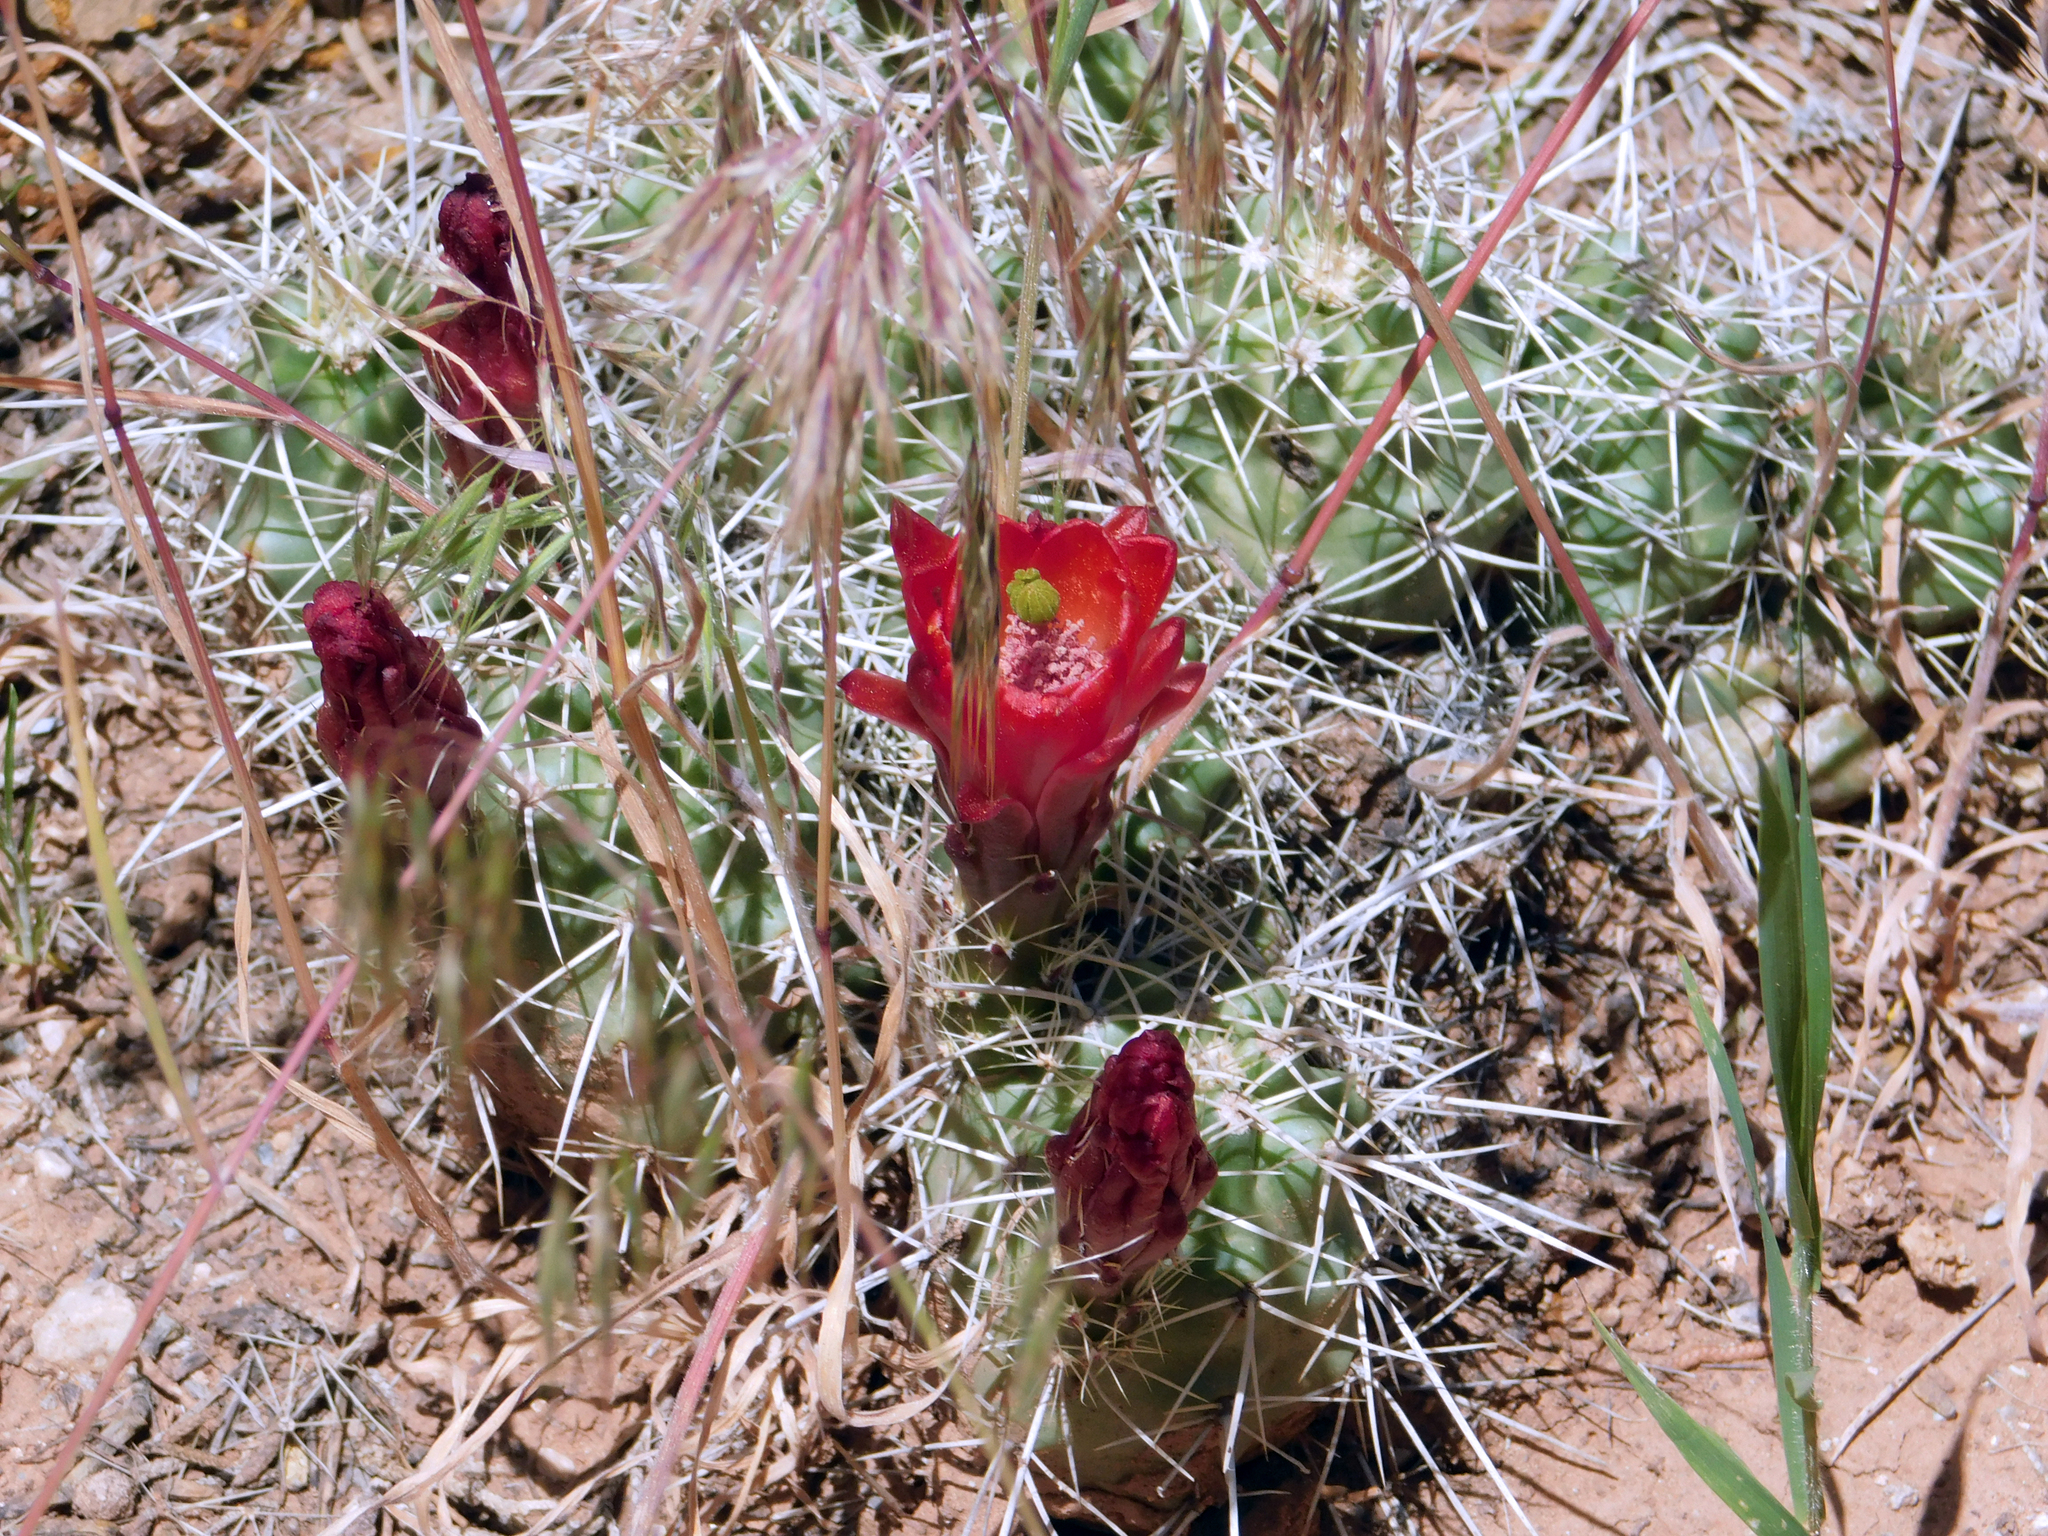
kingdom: Plantae
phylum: Tracheophyta
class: Magnoliopsida
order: Caryophyllales
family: Cactaceae
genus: Echinocereus
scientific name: Echinocereus triglochidiatus
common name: Claretcup hedgehog
